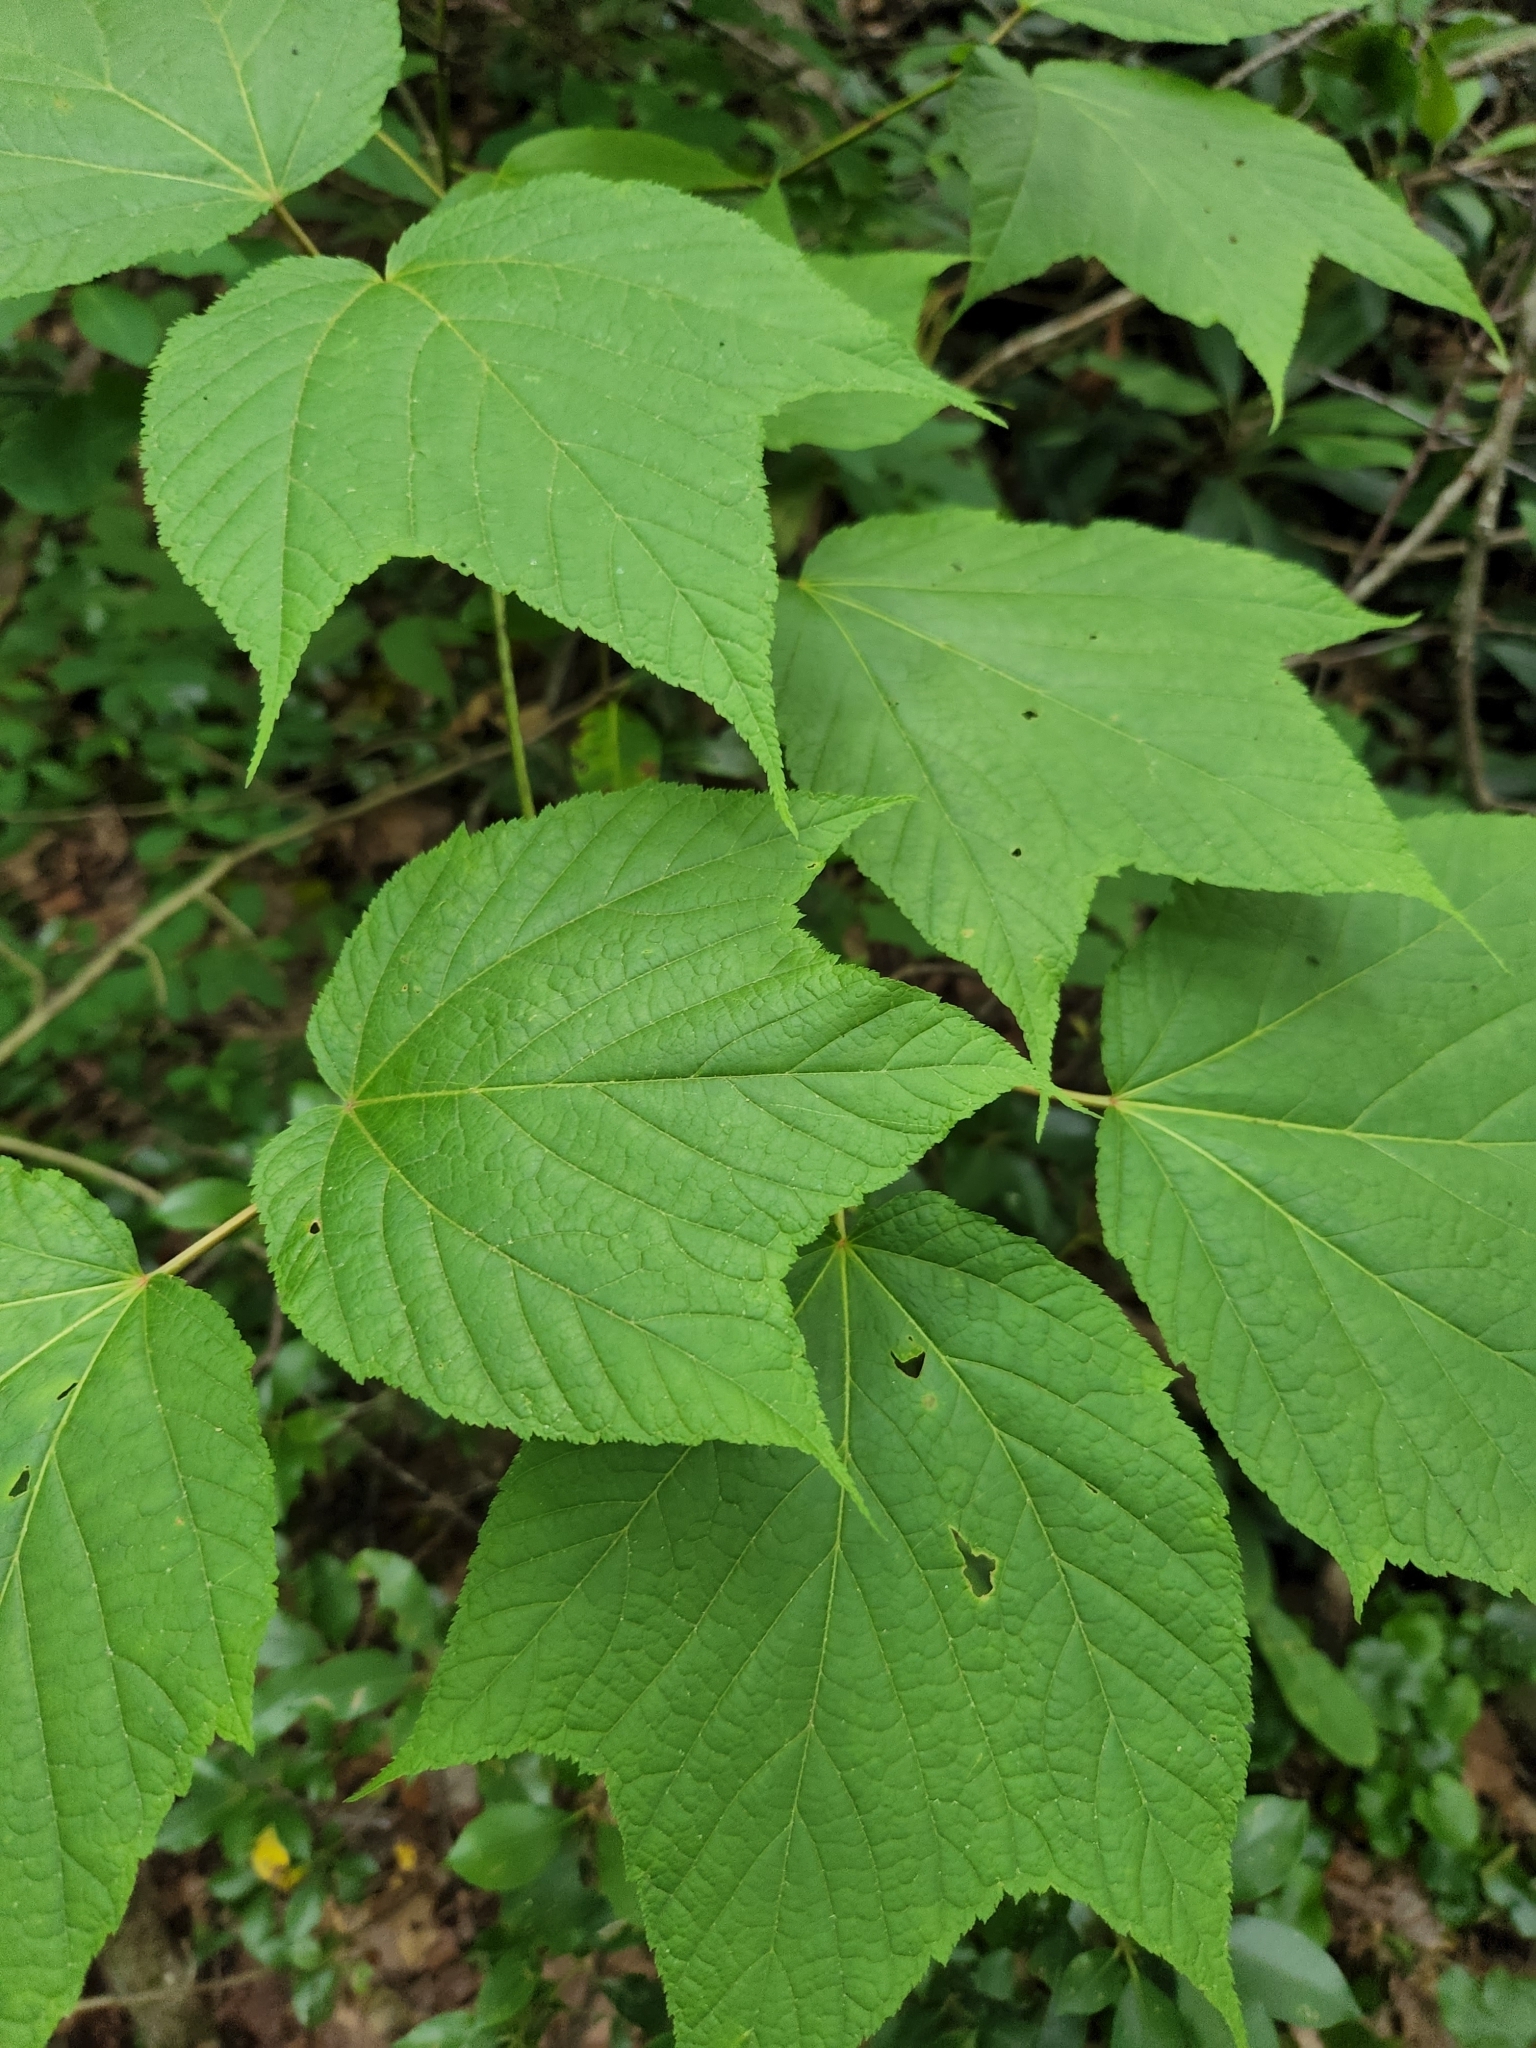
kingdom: Plantae
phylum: Tracheophyta
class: Magnoliopsida
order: Sapindales
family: Sapindaceae
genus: Acer
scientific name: Acer pensylvanicum
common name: Moosewood
